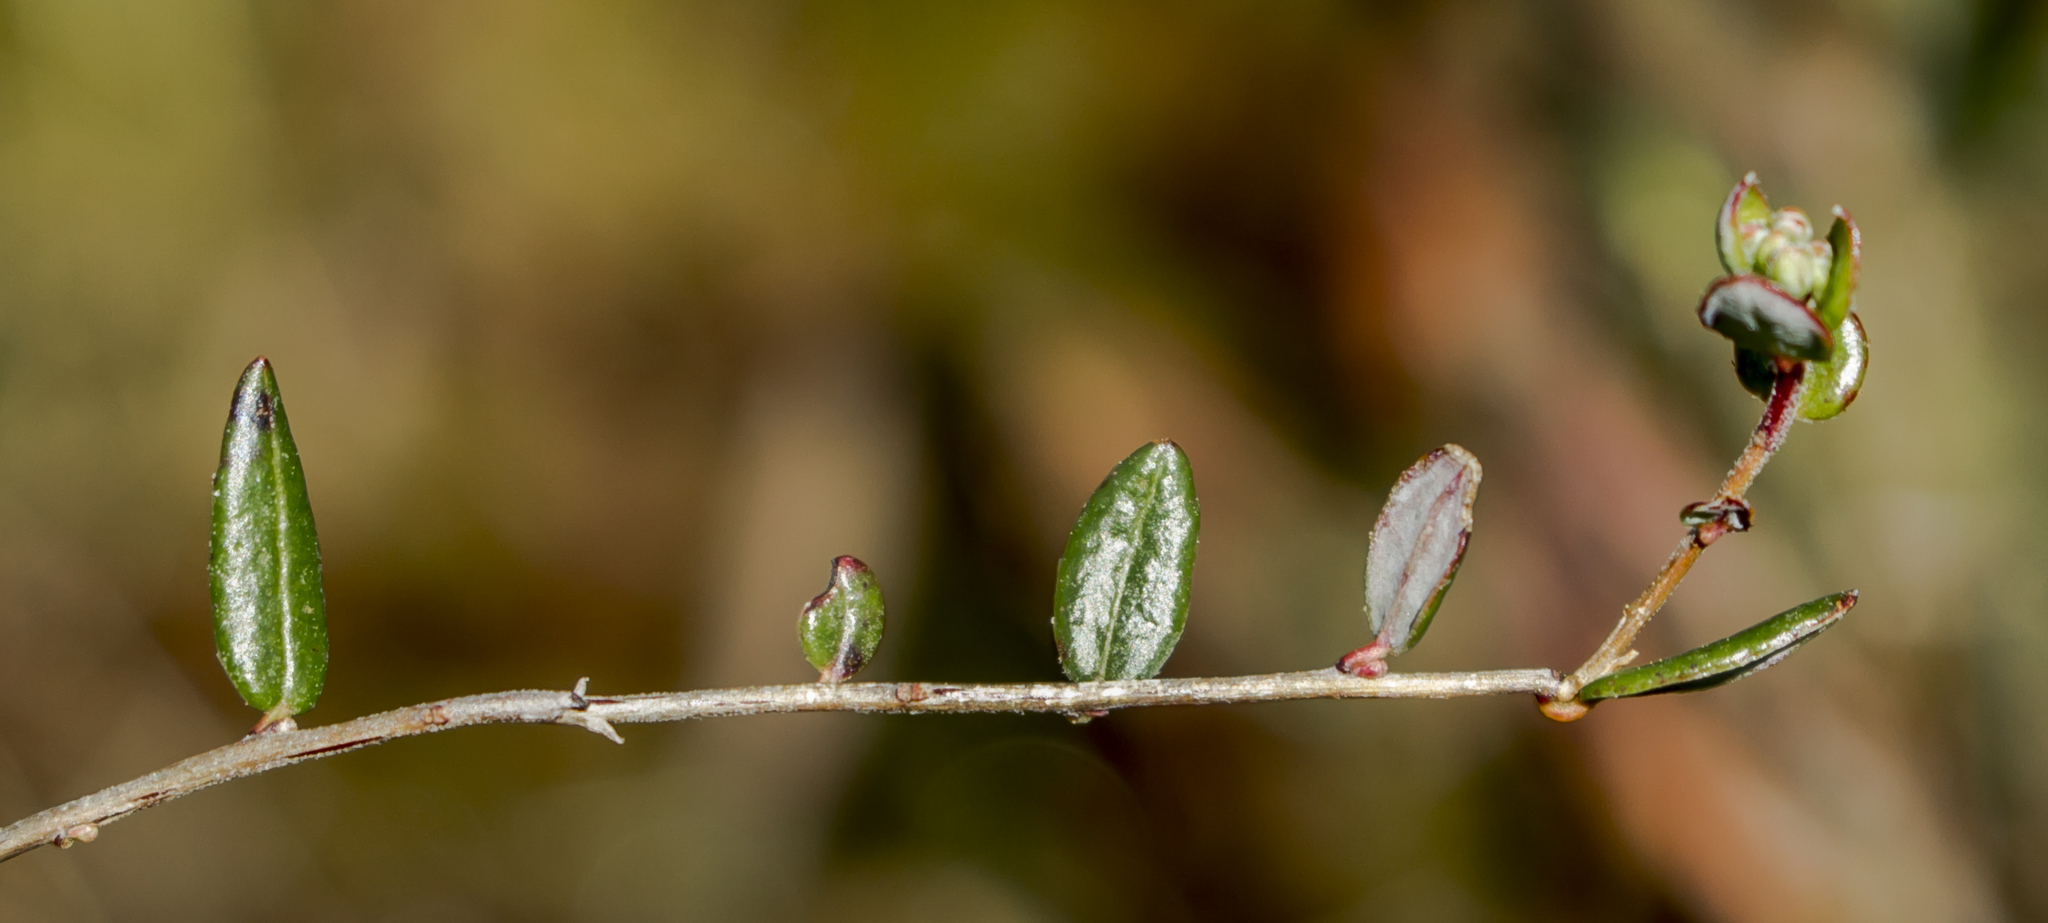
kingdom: Plantae
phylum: Tracheophyta
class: Magnoliopsida
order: Ericales
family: Ericaceae
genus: Vaccinium
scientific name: Vaccinium oxycoccos
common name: Cranberry
